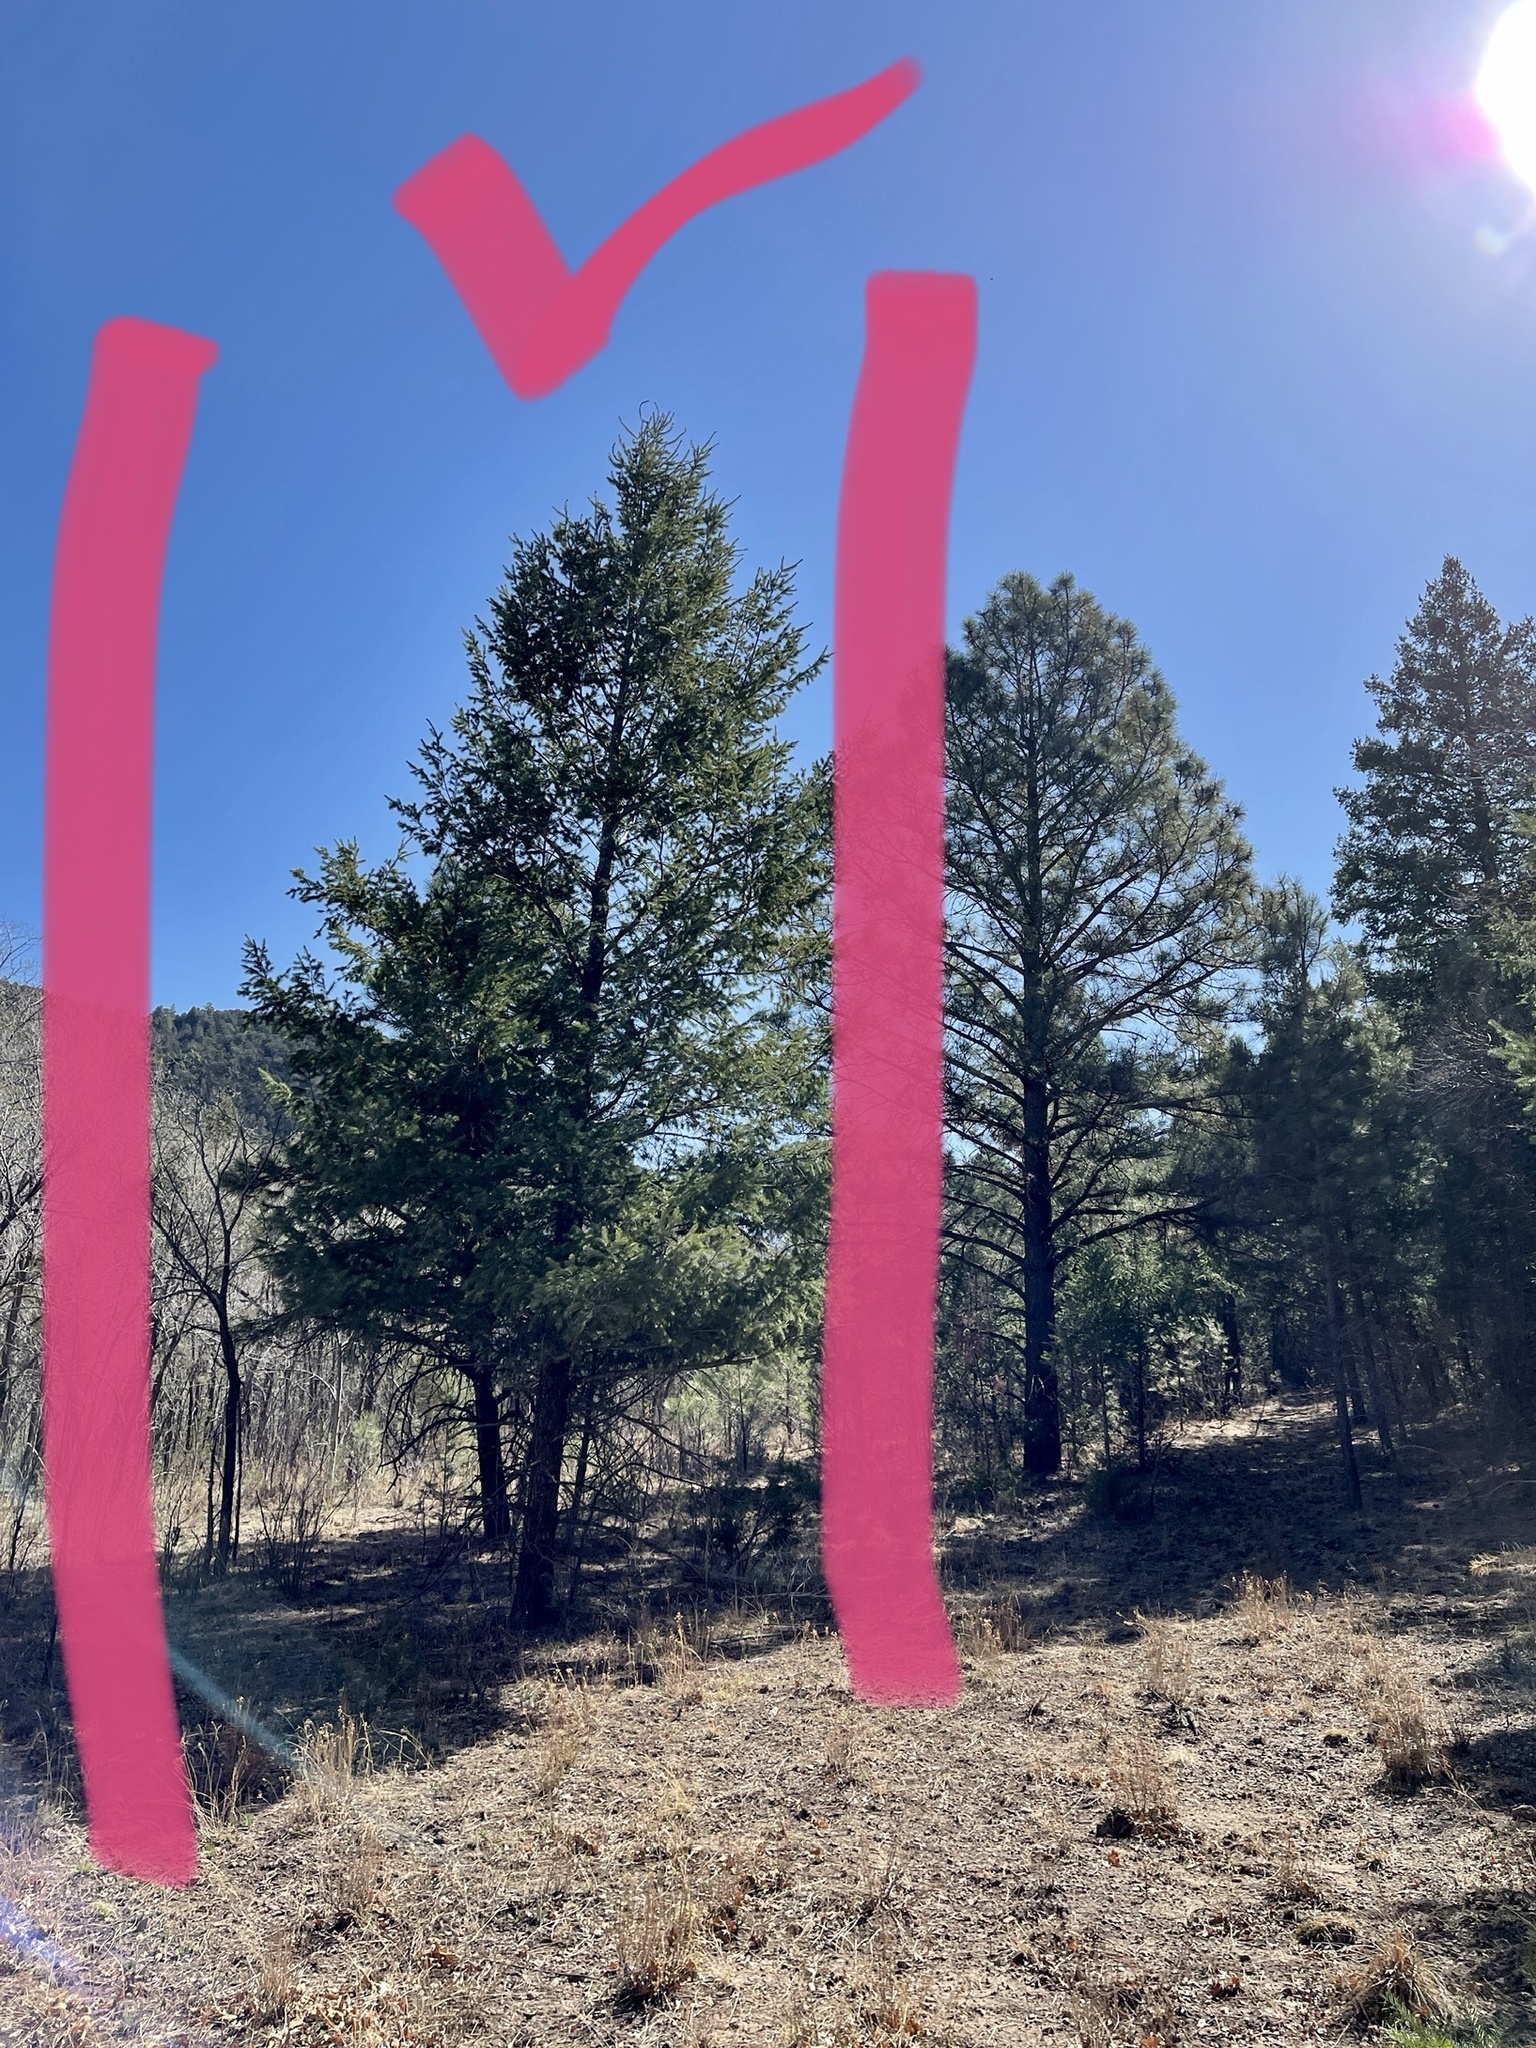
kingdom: Plantae
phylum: Tracheophyta
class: Pinopsida
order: Pinales
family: Pinaceae
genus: Pseudotsuga
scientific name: Pseudotsuga menziesii
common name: Douglas fir
